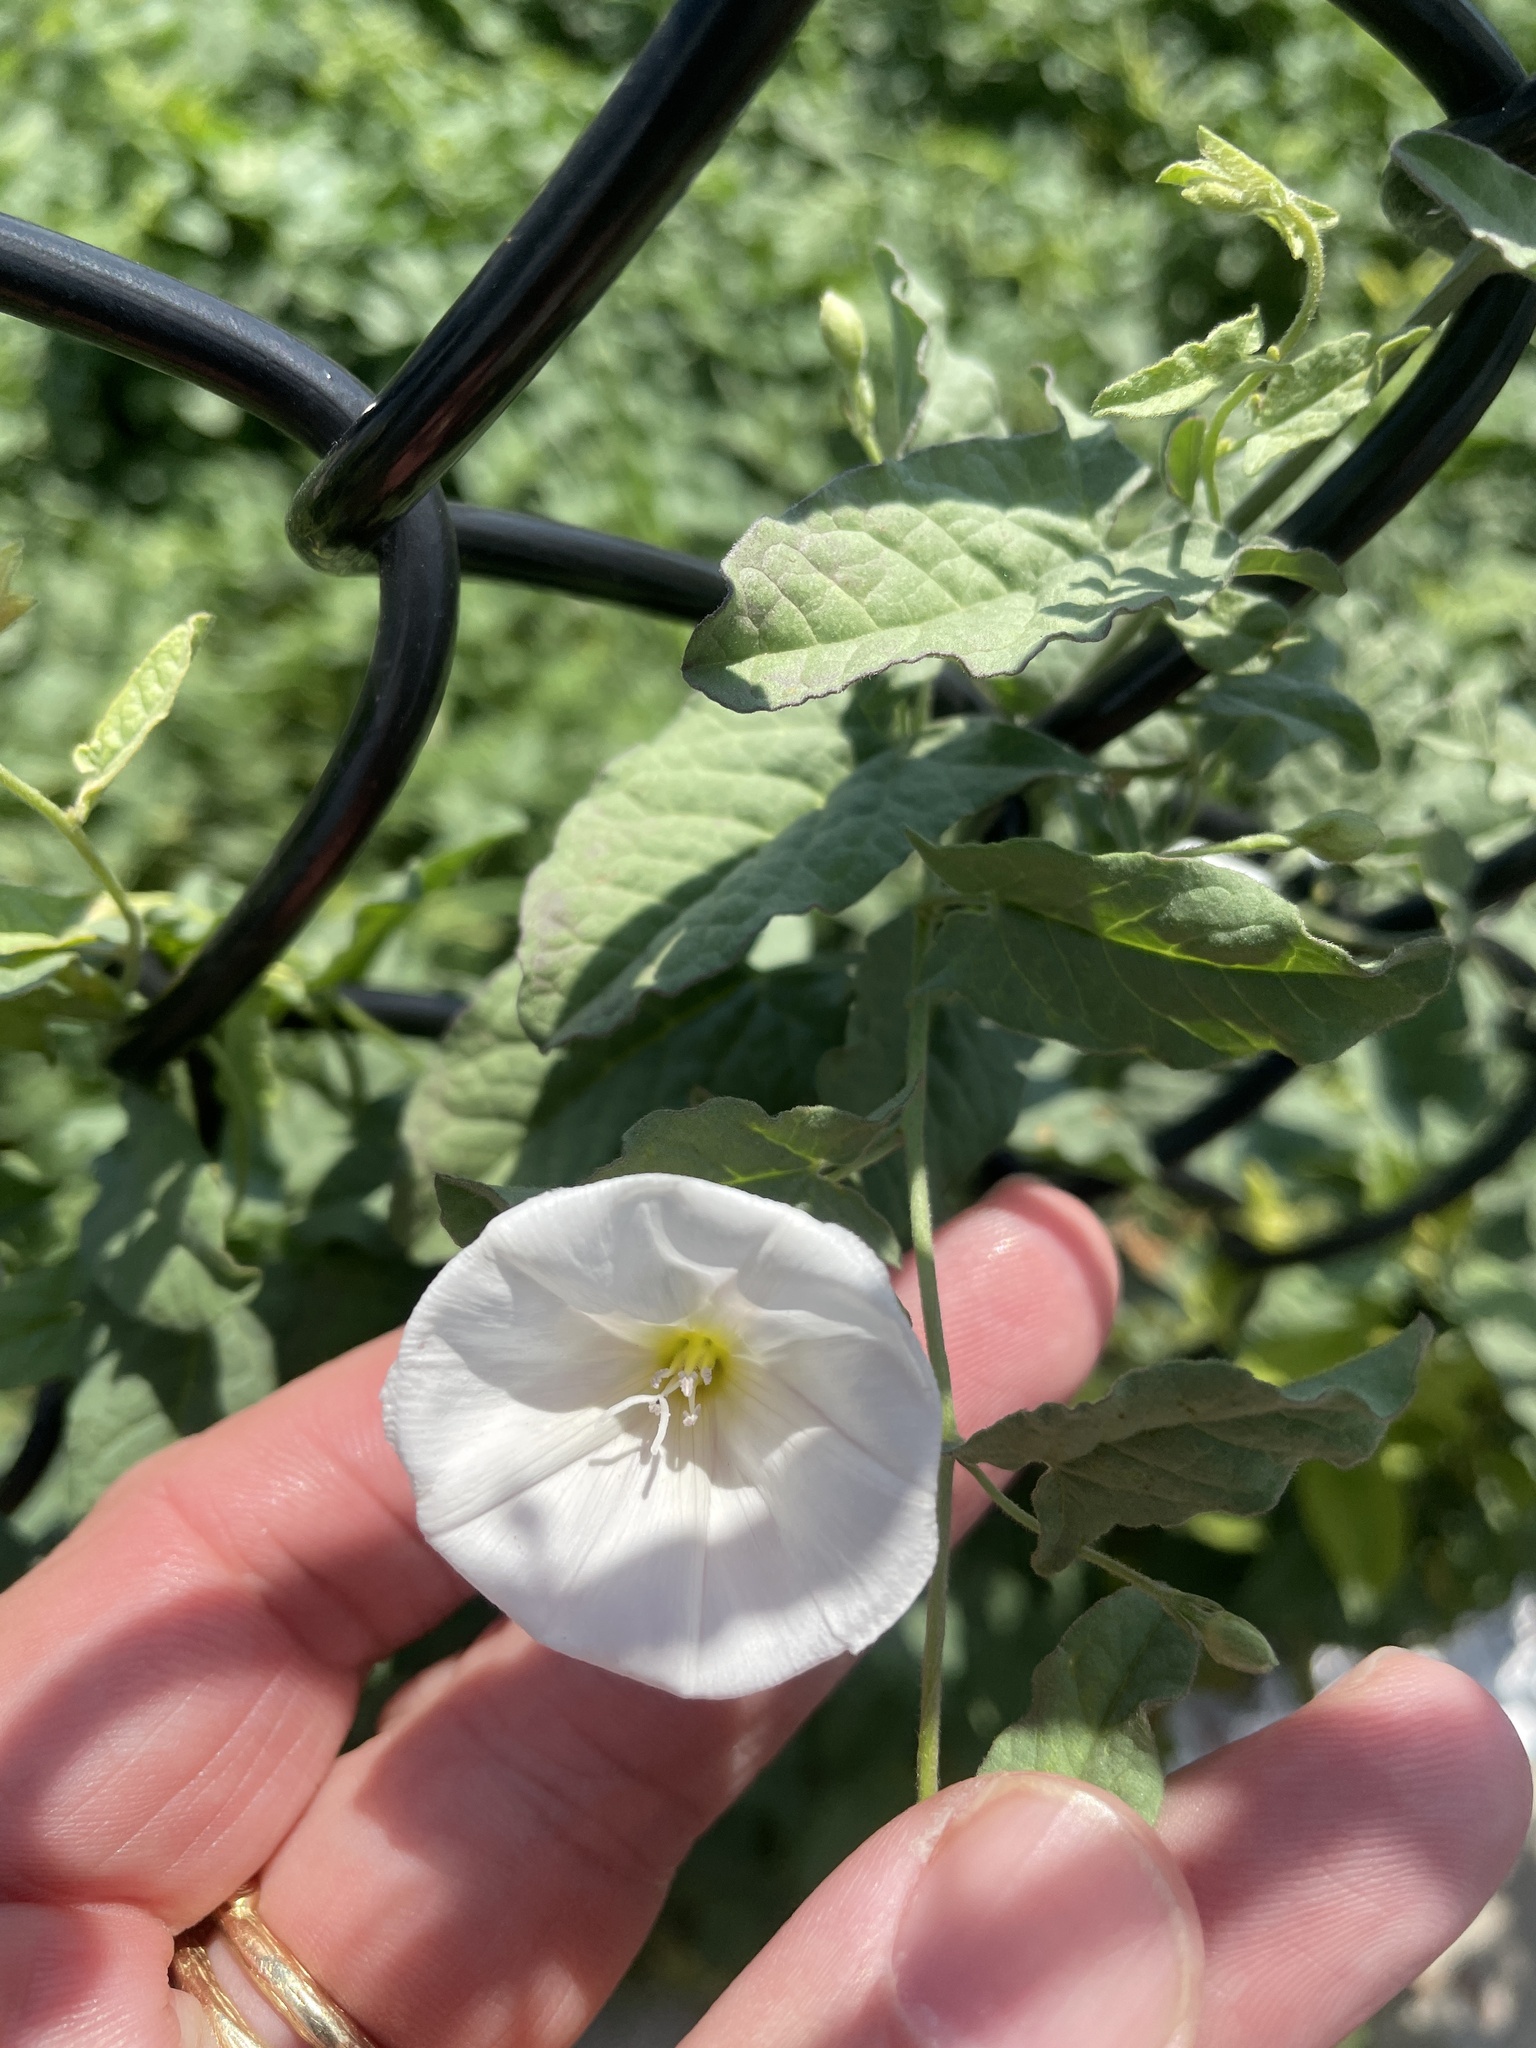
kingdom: Plantae
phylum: Tracheophyta
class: Magnoliopsida
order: Solanales
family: Convolvulaceae
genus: Convolvulus
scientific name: Convolvulus arvensis
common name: Field bindweed
